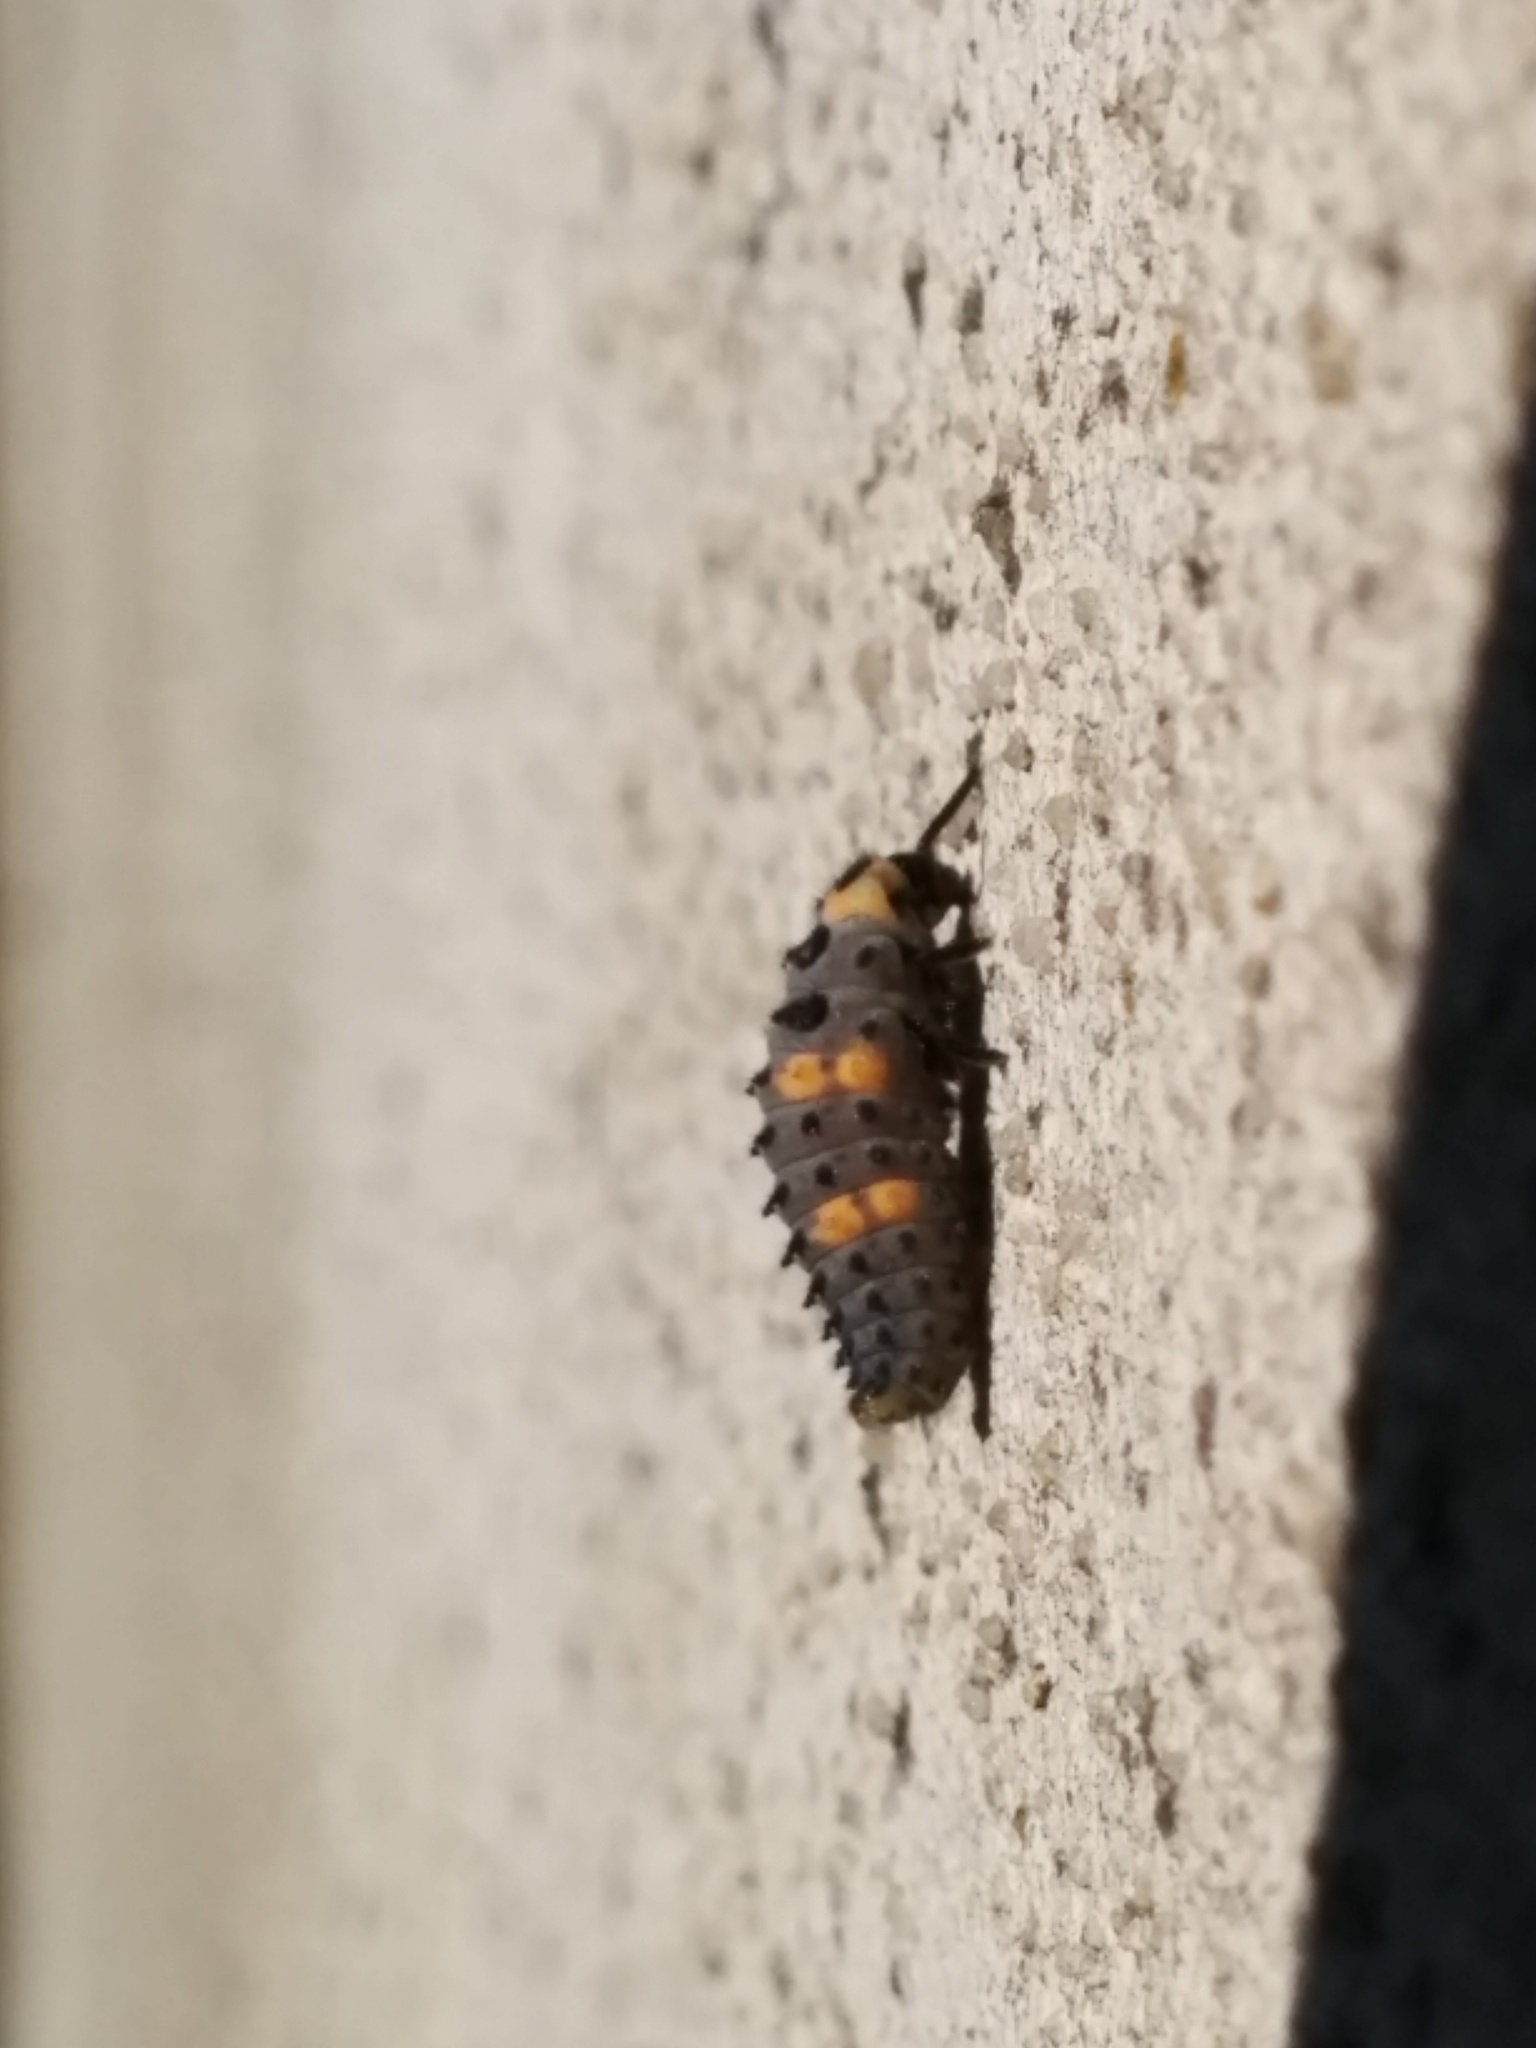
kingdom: Animalia
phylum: Arthropoda
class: Insecta
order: Coleoptera
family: Coccinellidae
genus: Coccinella
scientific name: Coccinella septempunctata
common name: Sevenspotted lady beetle
